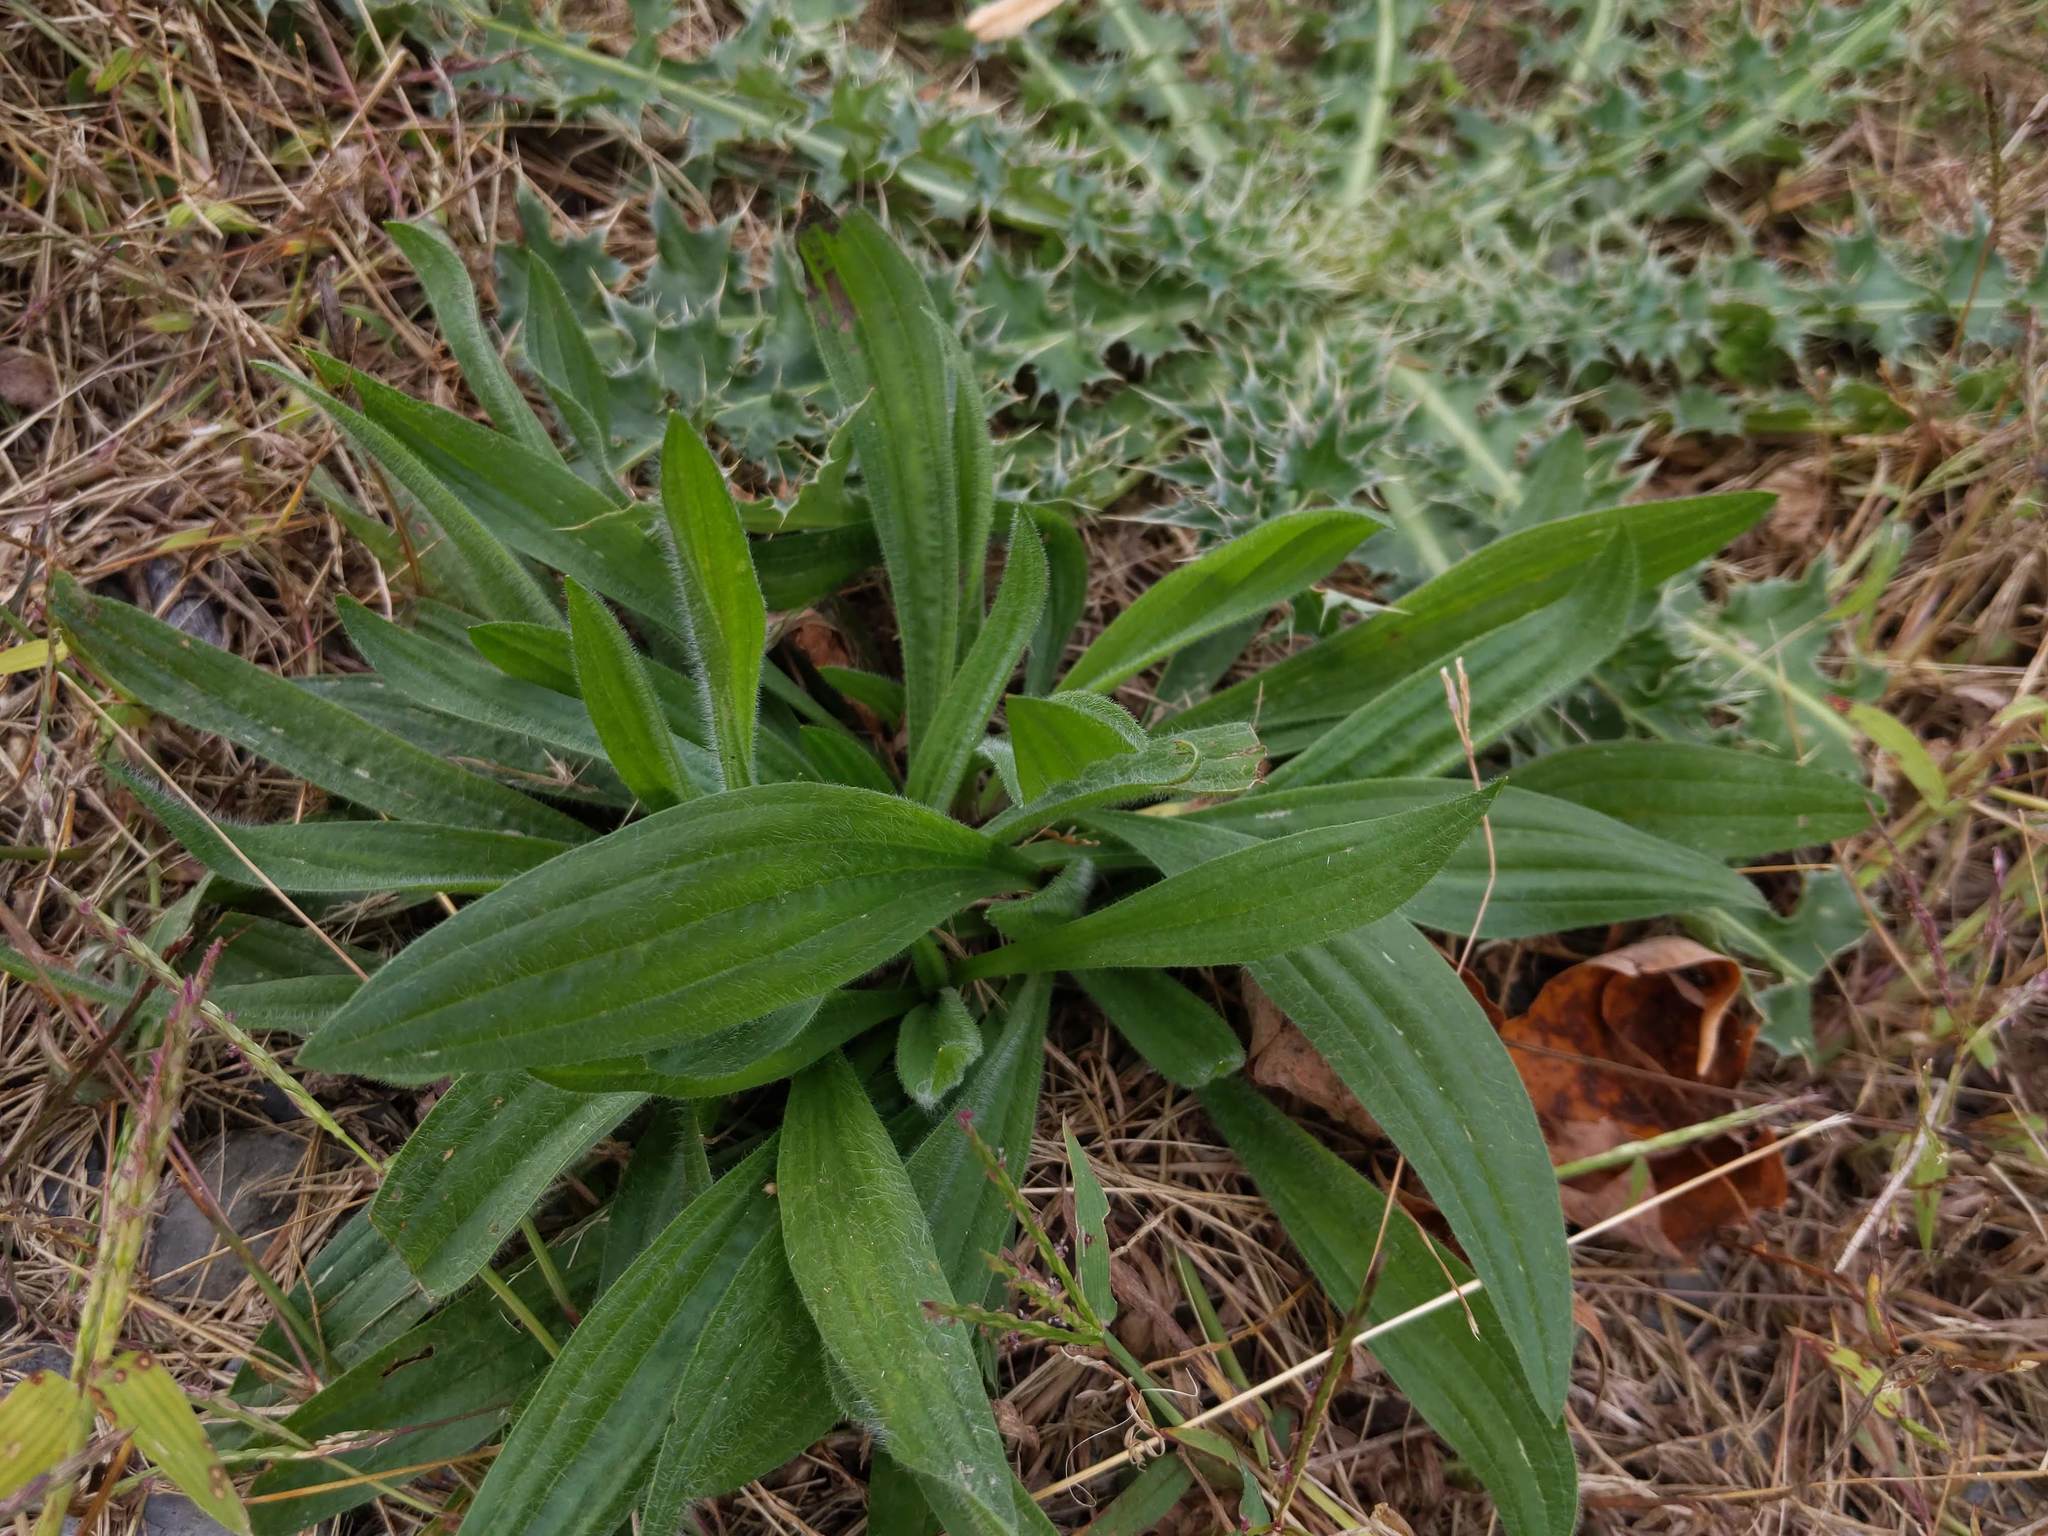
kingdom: Plantae
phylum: Tracheophyta
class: Magnoliopsida
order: Lamiales
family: Plantaginaceae
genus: Plantago
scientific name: Plantago lanceolata
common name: Ribwort plantain
